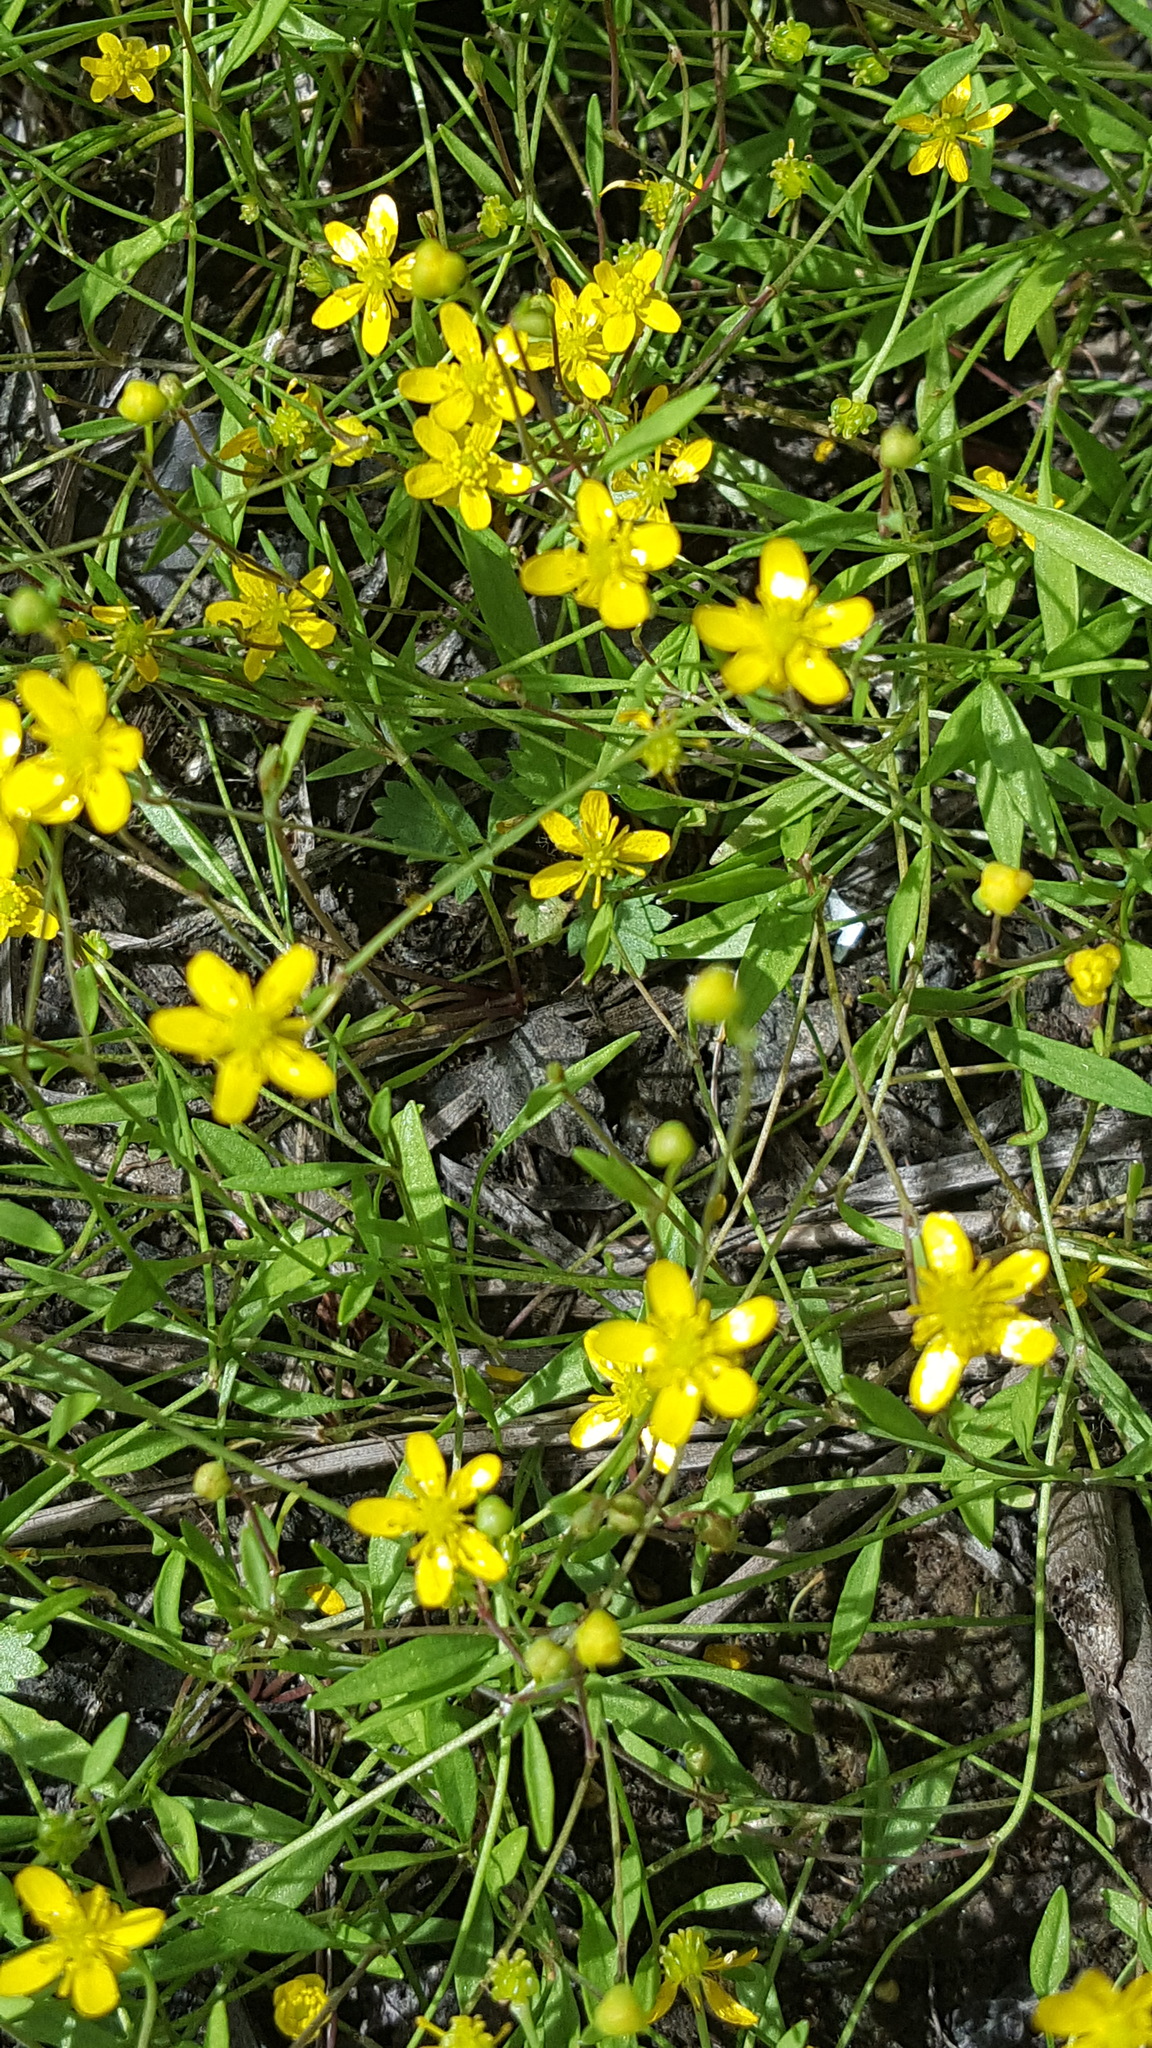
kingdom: Plantae
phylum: Tracheophyta
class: Magnoliopsida
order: Ranunculales
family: Ranunculaceae
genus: Ranunculus
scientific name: Ranunculus flammula
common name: Lesser spearwort
